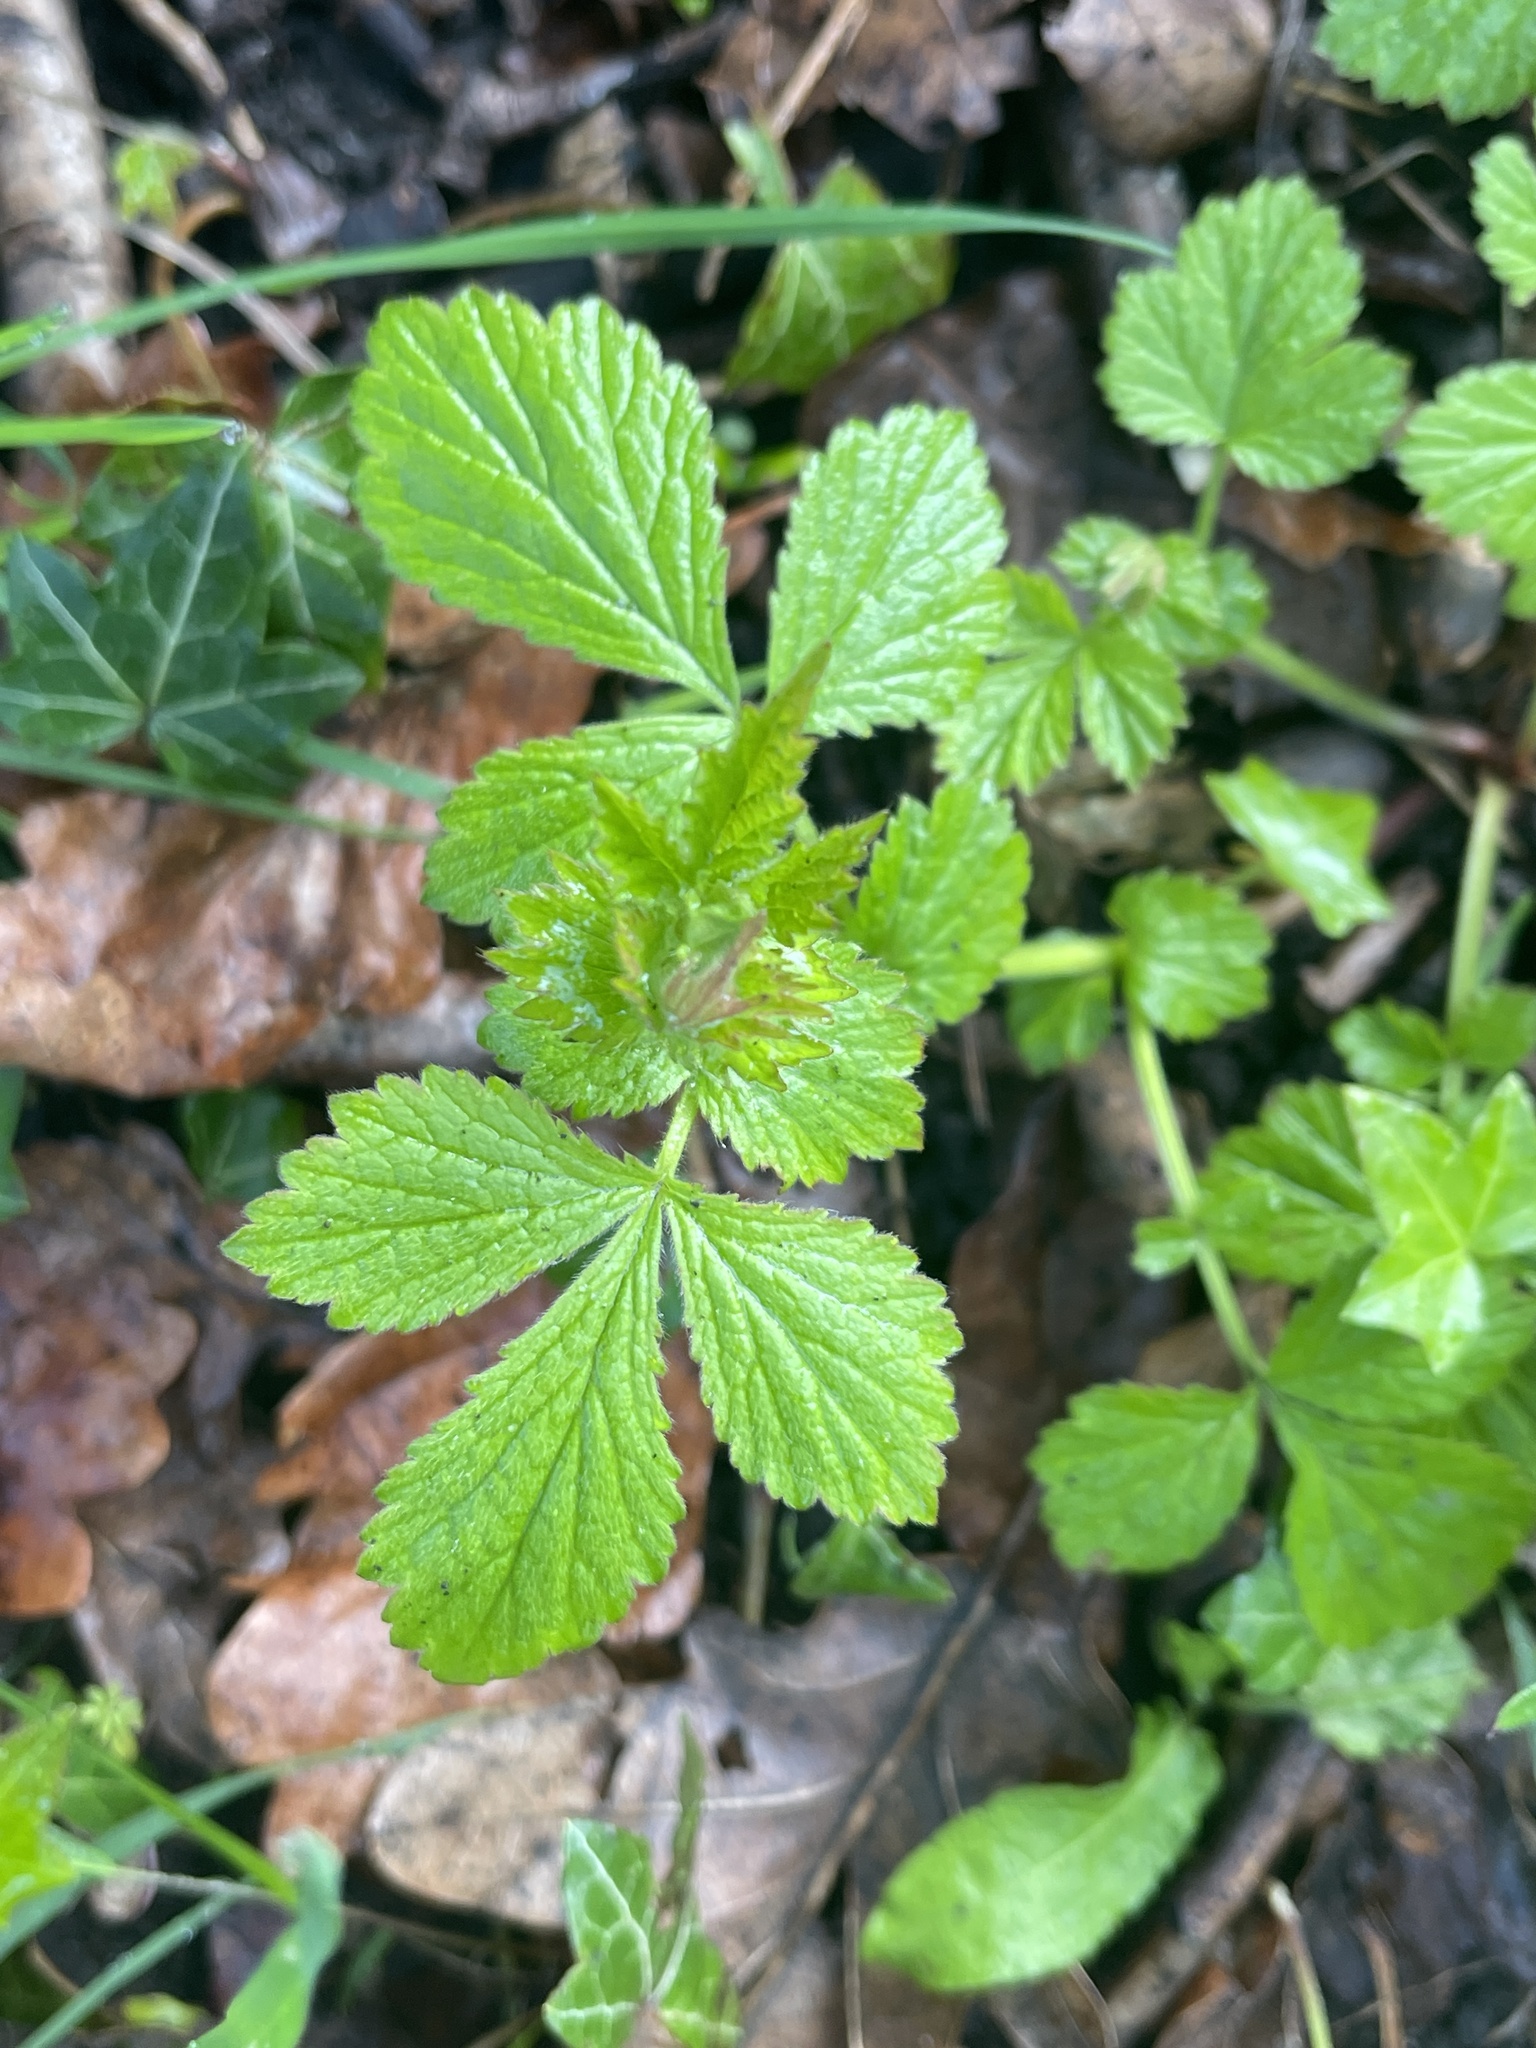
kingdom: Plantae
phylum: Tracheophyta
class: Magnoliopsida
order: Rosales
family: Rosaceae
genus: Geum
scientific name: Geum urbanum
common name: Wood avens
